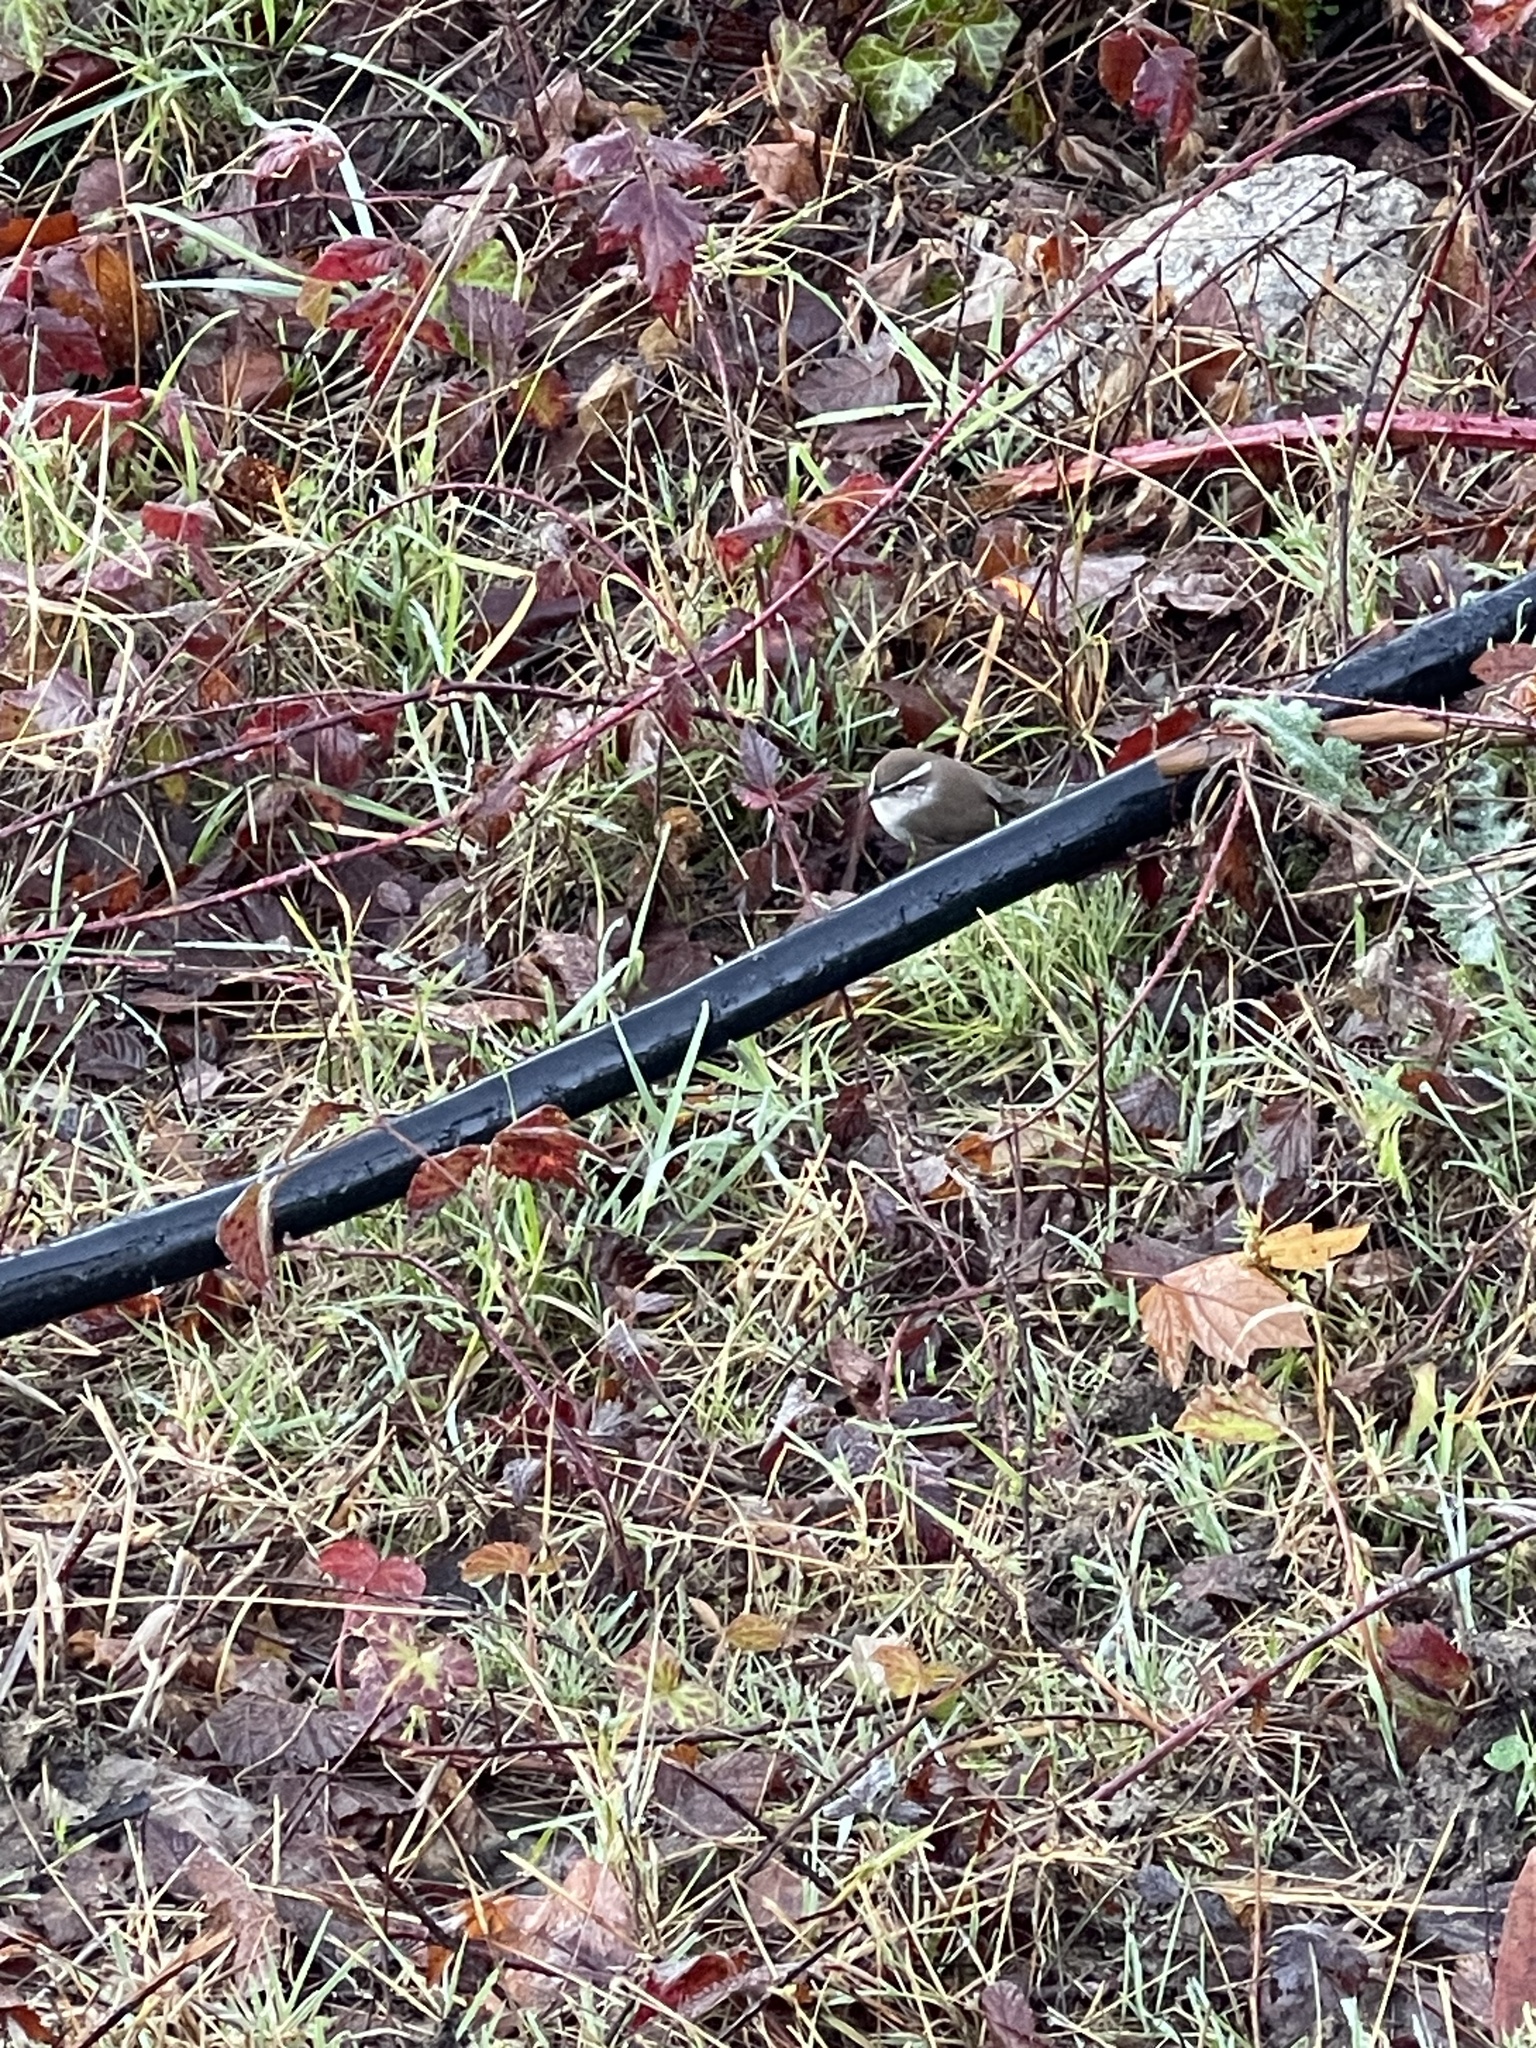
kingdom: Animalia
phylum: Chordata
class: Aves
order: Passeriformes
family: Troglodytidae
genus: Thryomanes
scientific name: Thryomanes bewickii
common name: Bewick's wren
